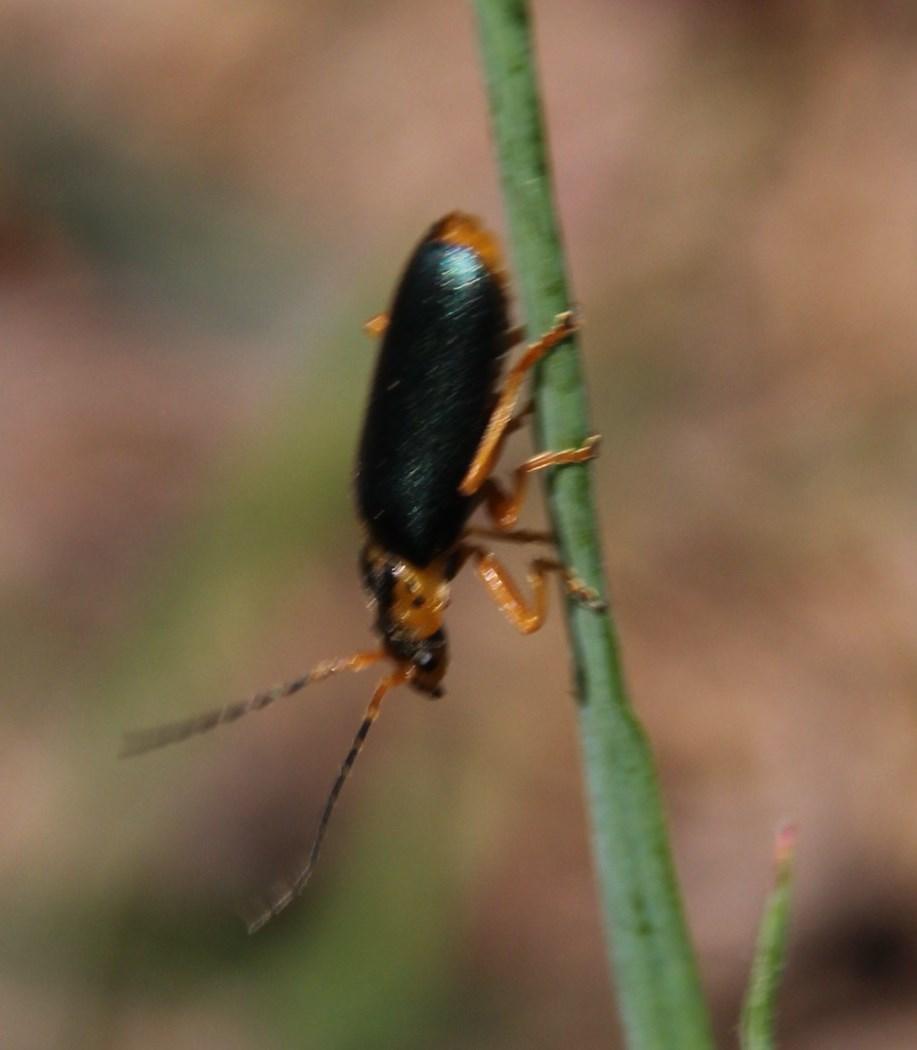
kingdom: Animalia
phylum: Arthropoda
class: Insecta
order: Coleoptera
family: Cantharidae
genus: Afronycha
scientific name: Afronycha
